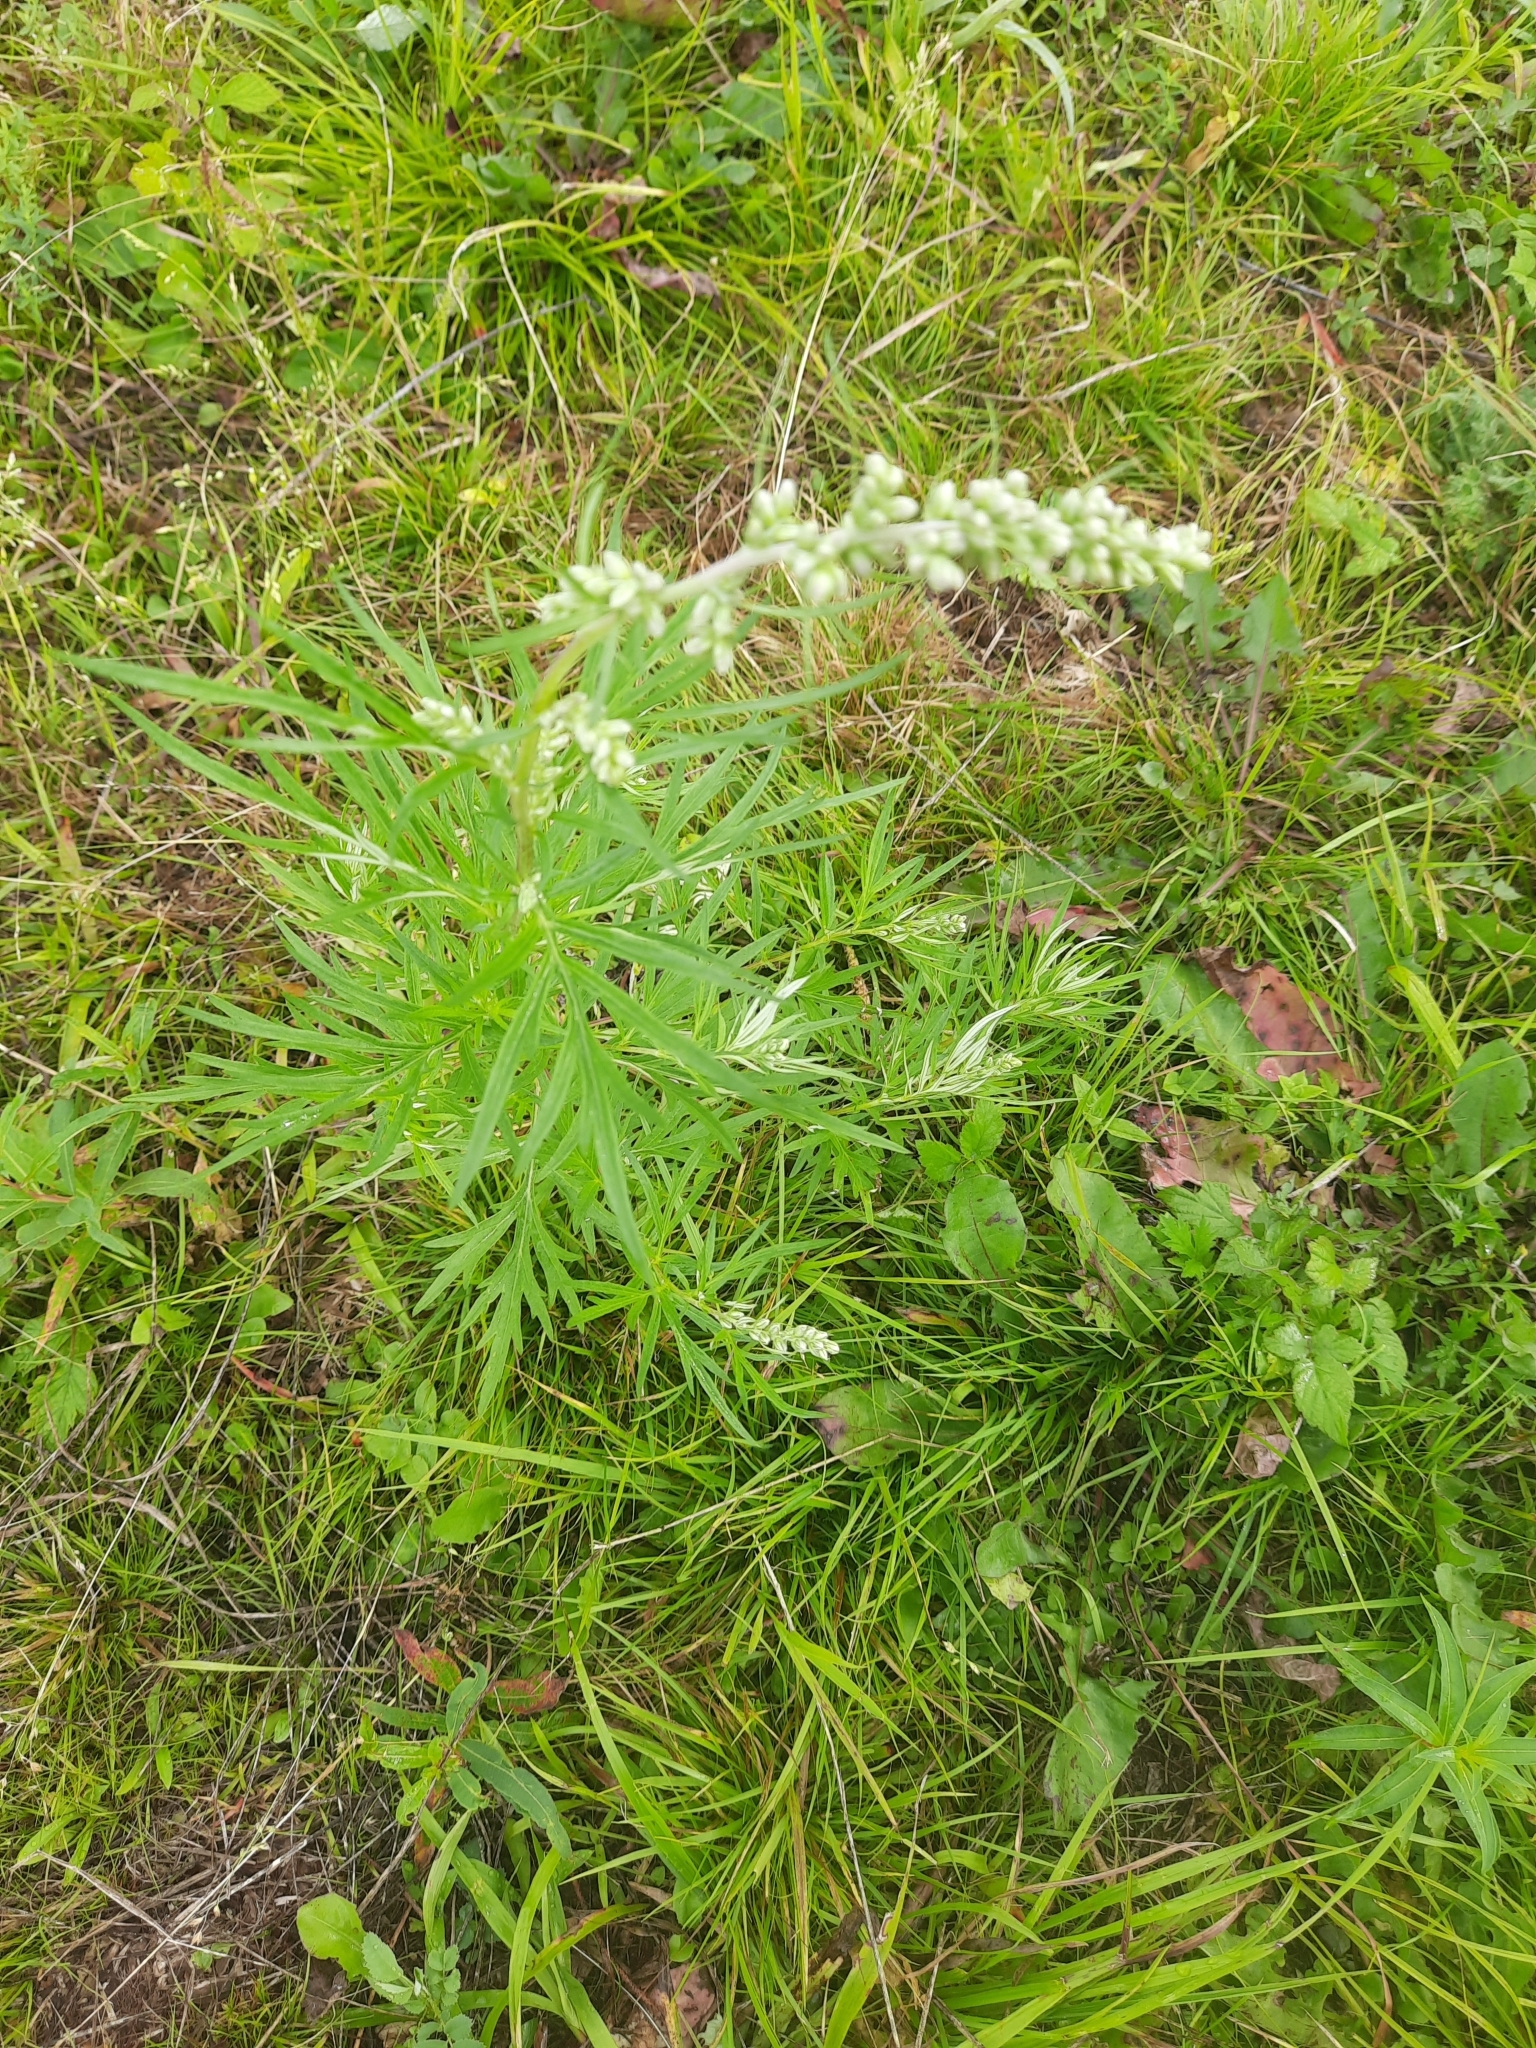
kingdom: Plantae
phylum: Tracheophyta
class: Magnoliopsida
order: Asterales
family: Asteraceae
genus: Artemisia
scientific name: Artemisia vulgaris
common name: Mugwort
